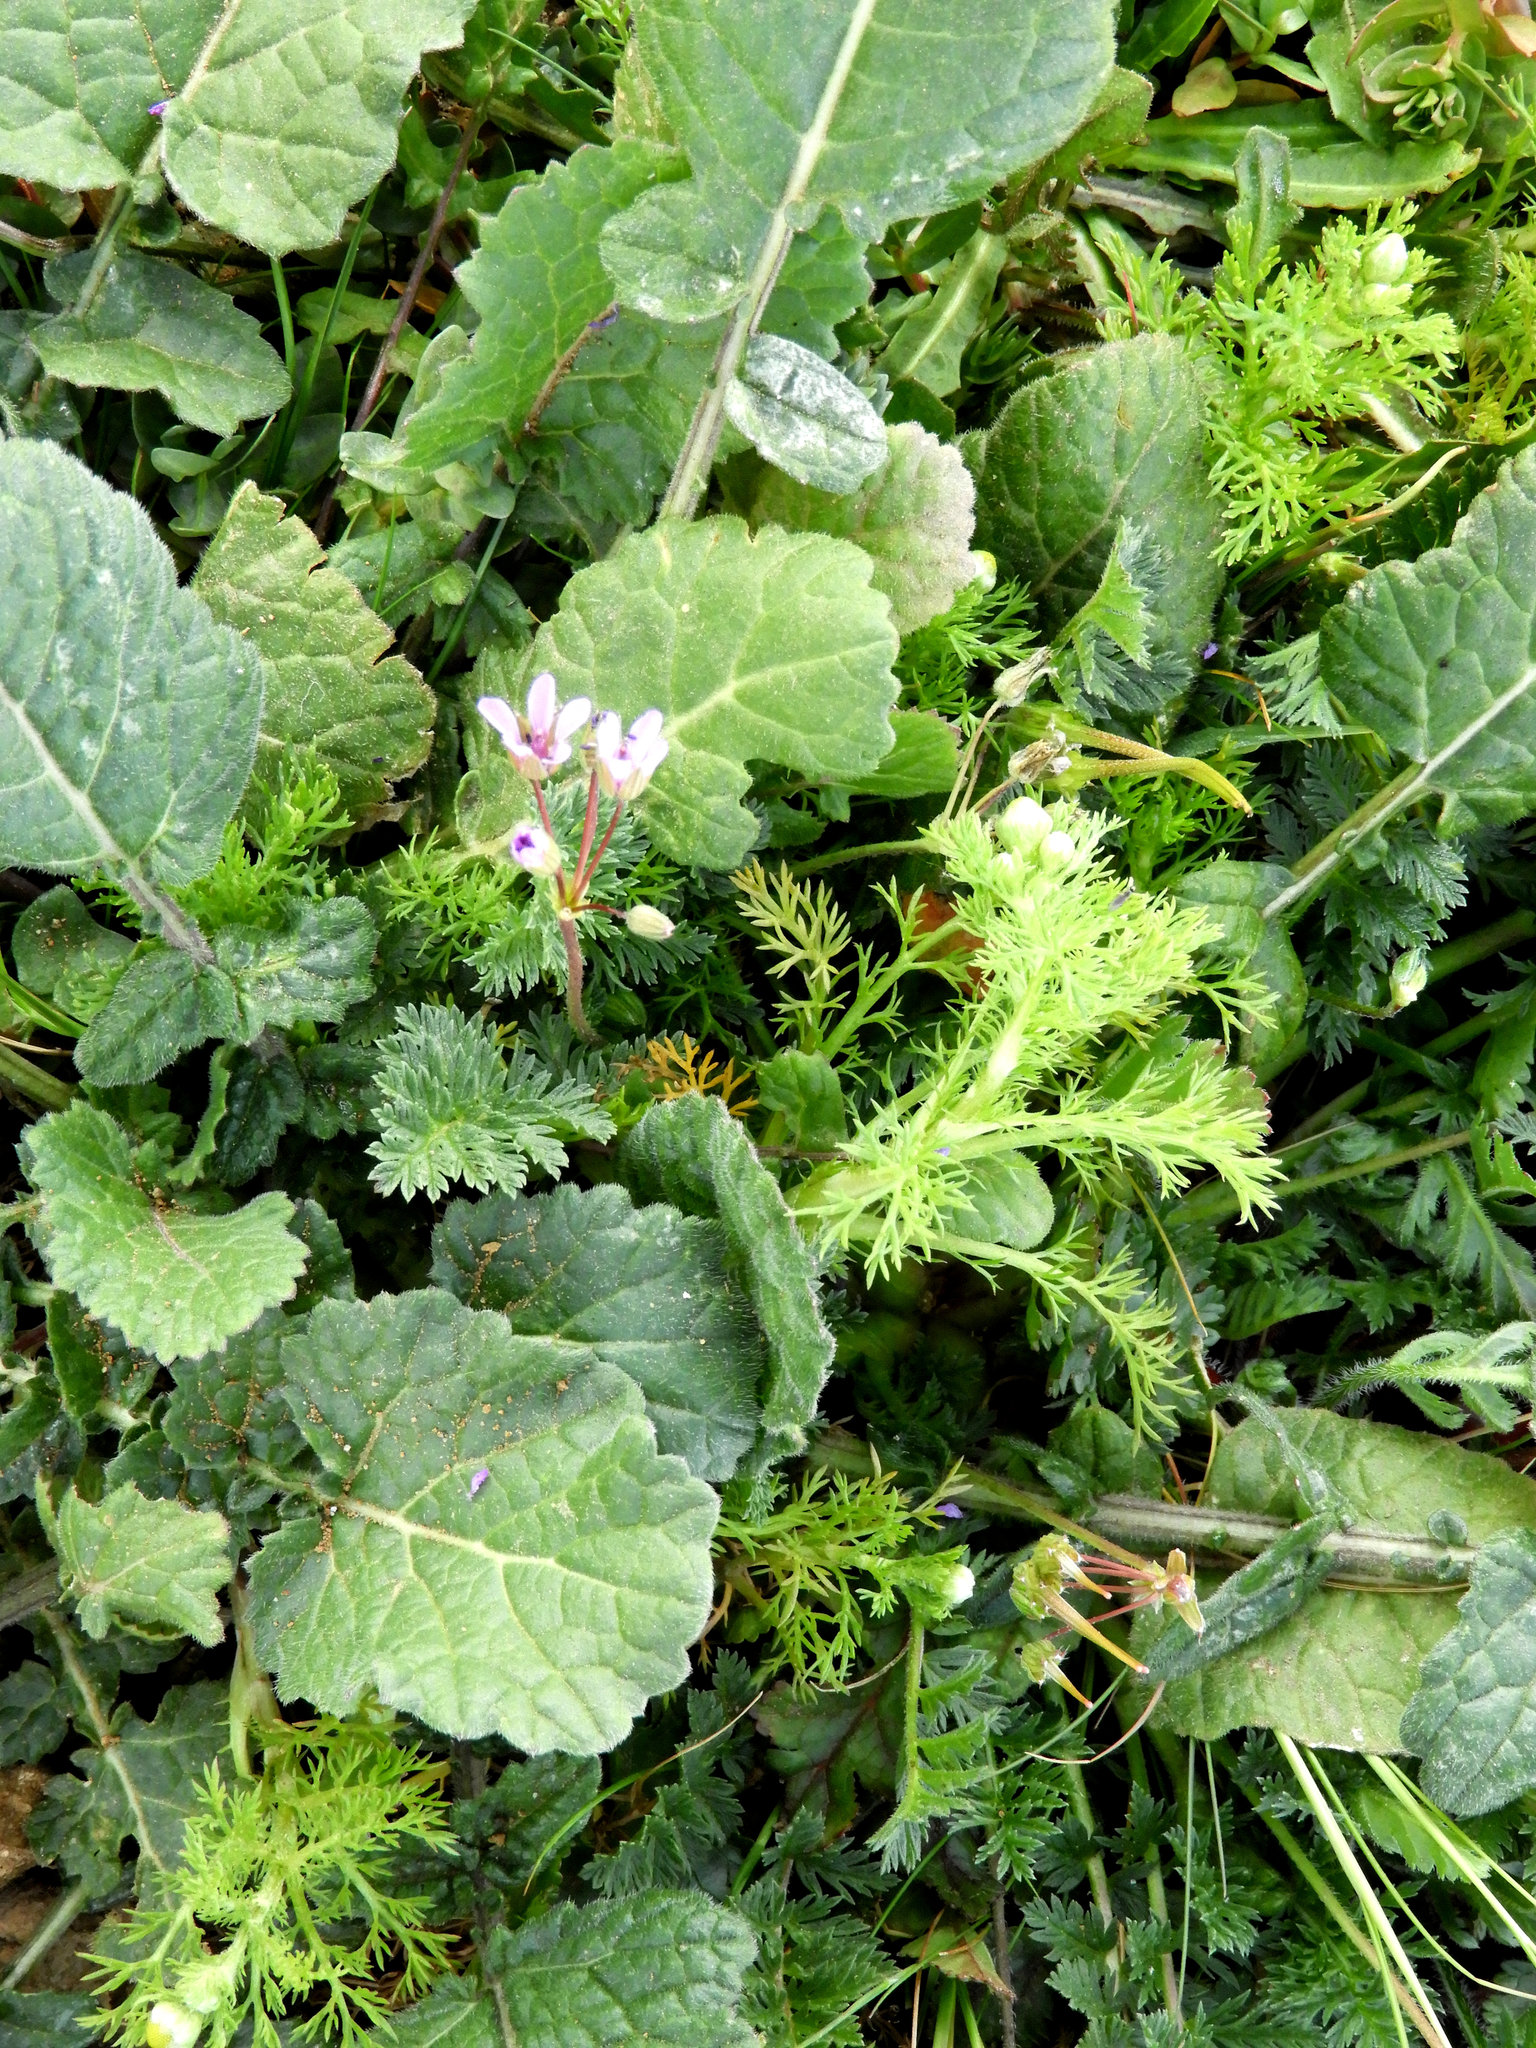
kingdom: Plantae
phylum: Tracheophyta
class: Magnoliopsida
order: Geraniales
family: Geraniaceae
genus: Erodium
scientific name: Erodium cicutarium
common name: Common stork's-bill
